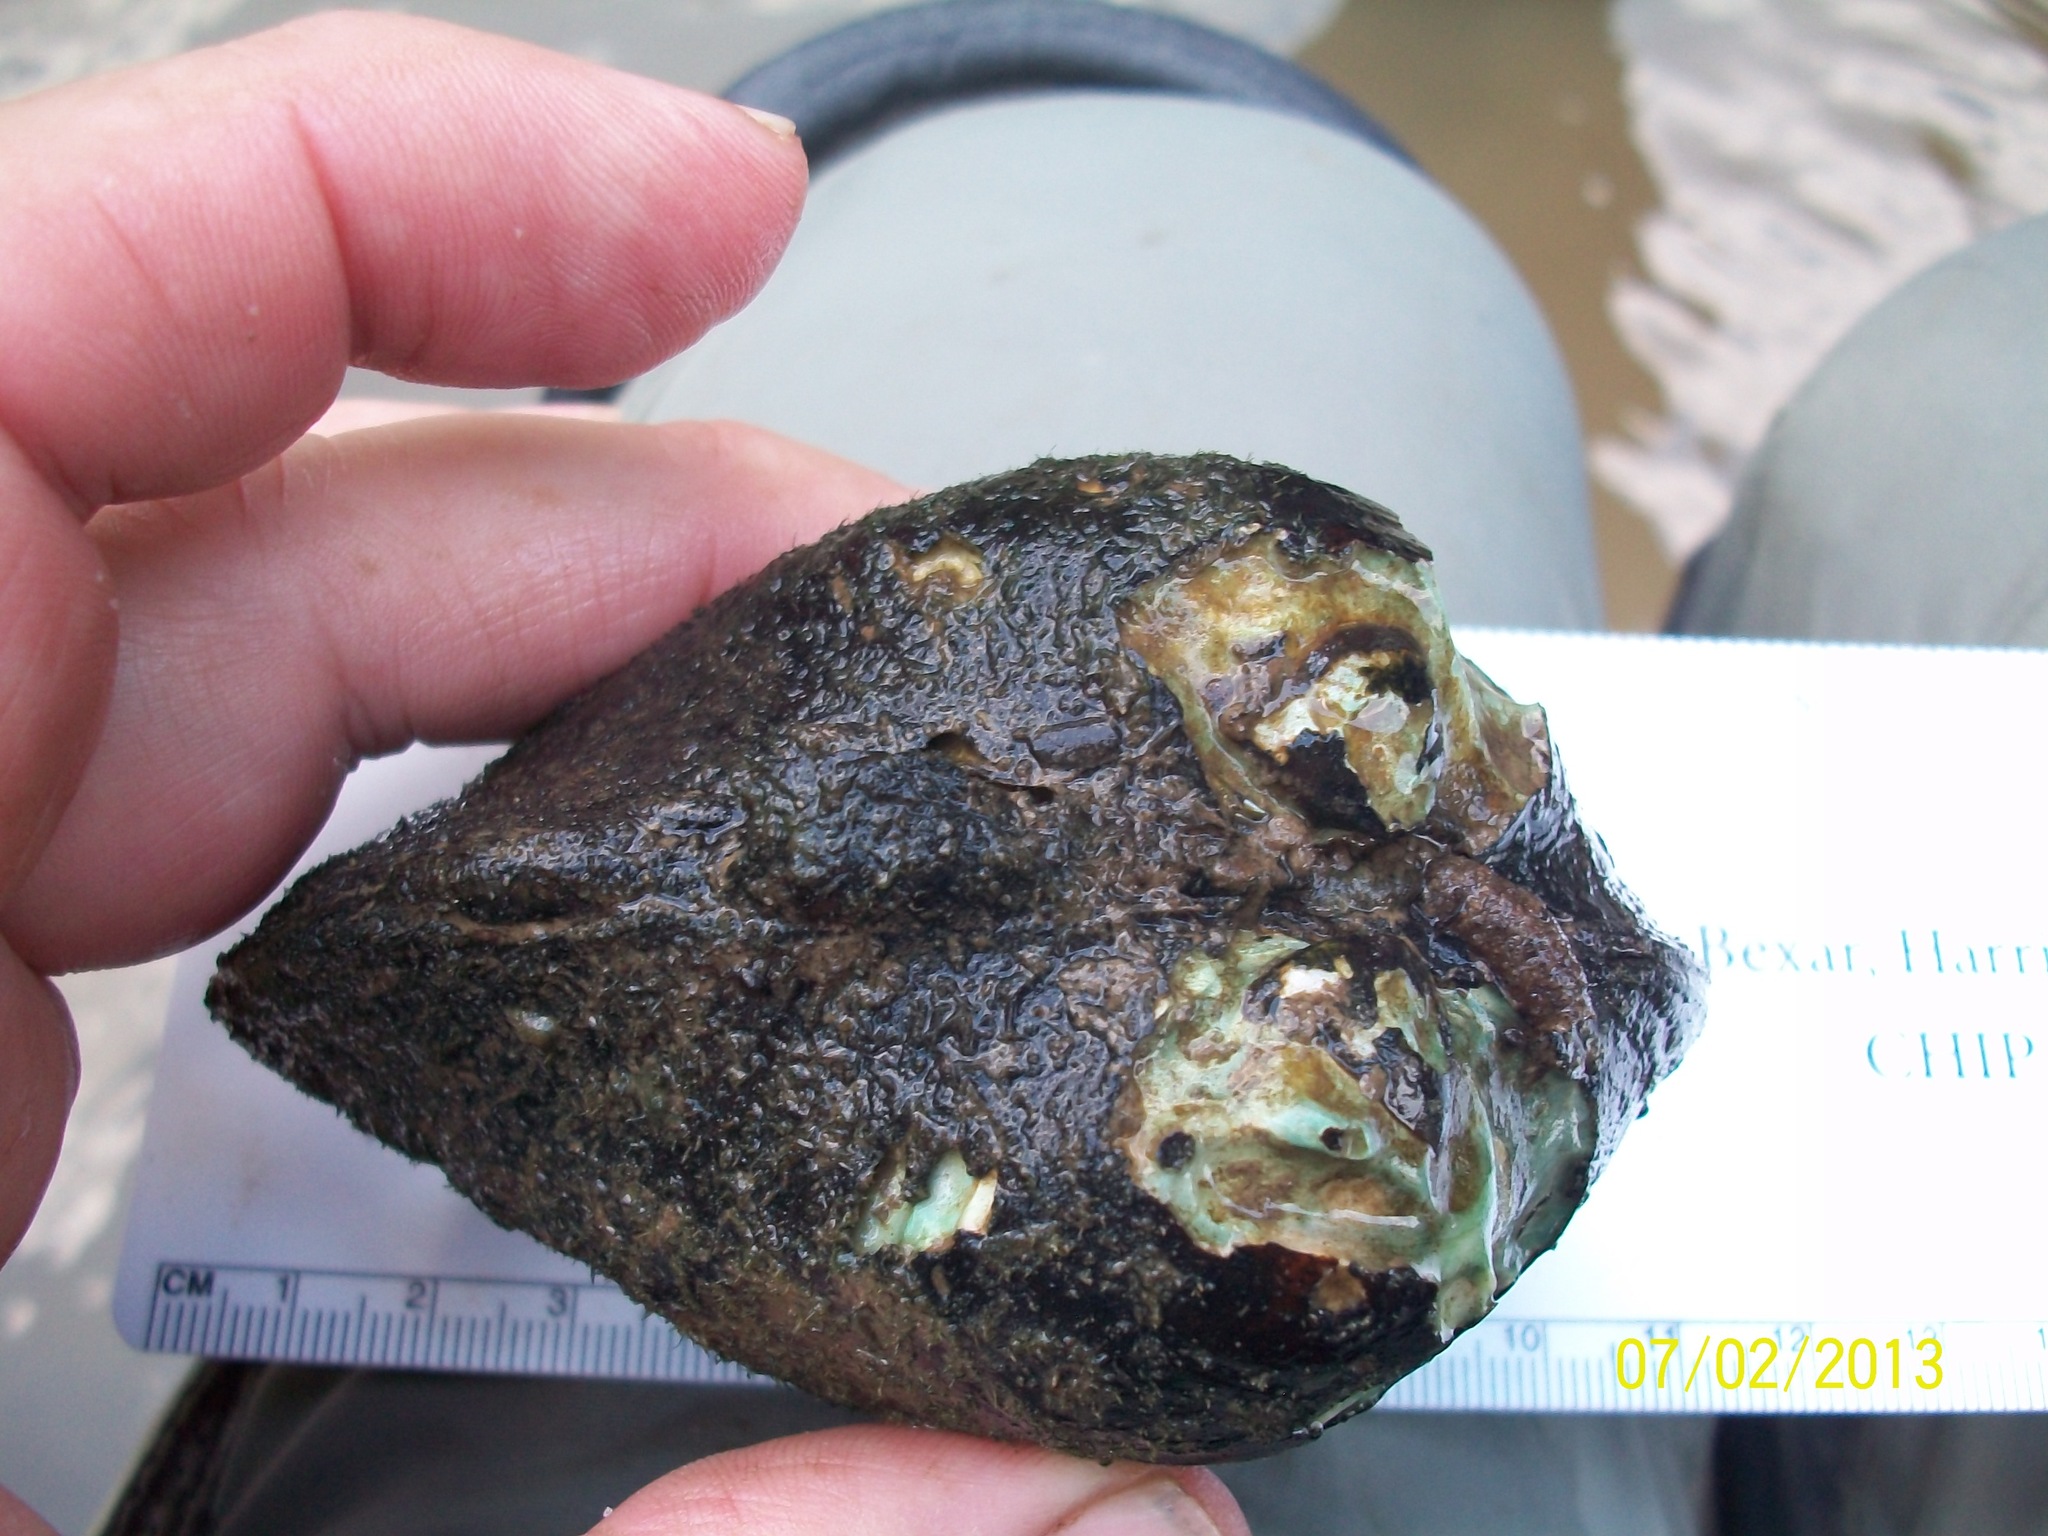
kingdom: Animalia
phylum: Mollusca
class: Bivalvia
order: Unionida
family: Unionidae
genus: Megalonaias
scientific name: Megalonaias nervosa
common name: Washboard
